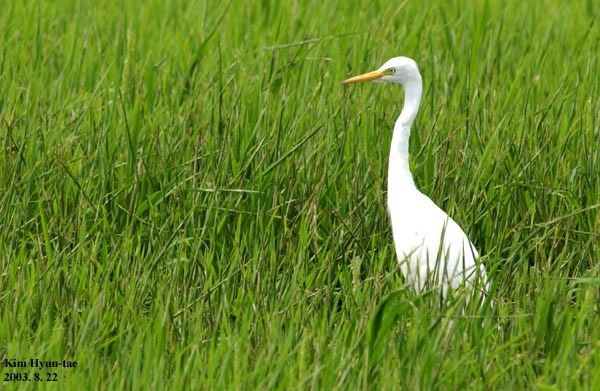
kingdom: Animalia
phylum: Chordata
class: Aves
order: Pelecaniformes
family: Ardeidae
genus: Egretta
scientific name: Egretta intermedia
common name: Intermediate egret
